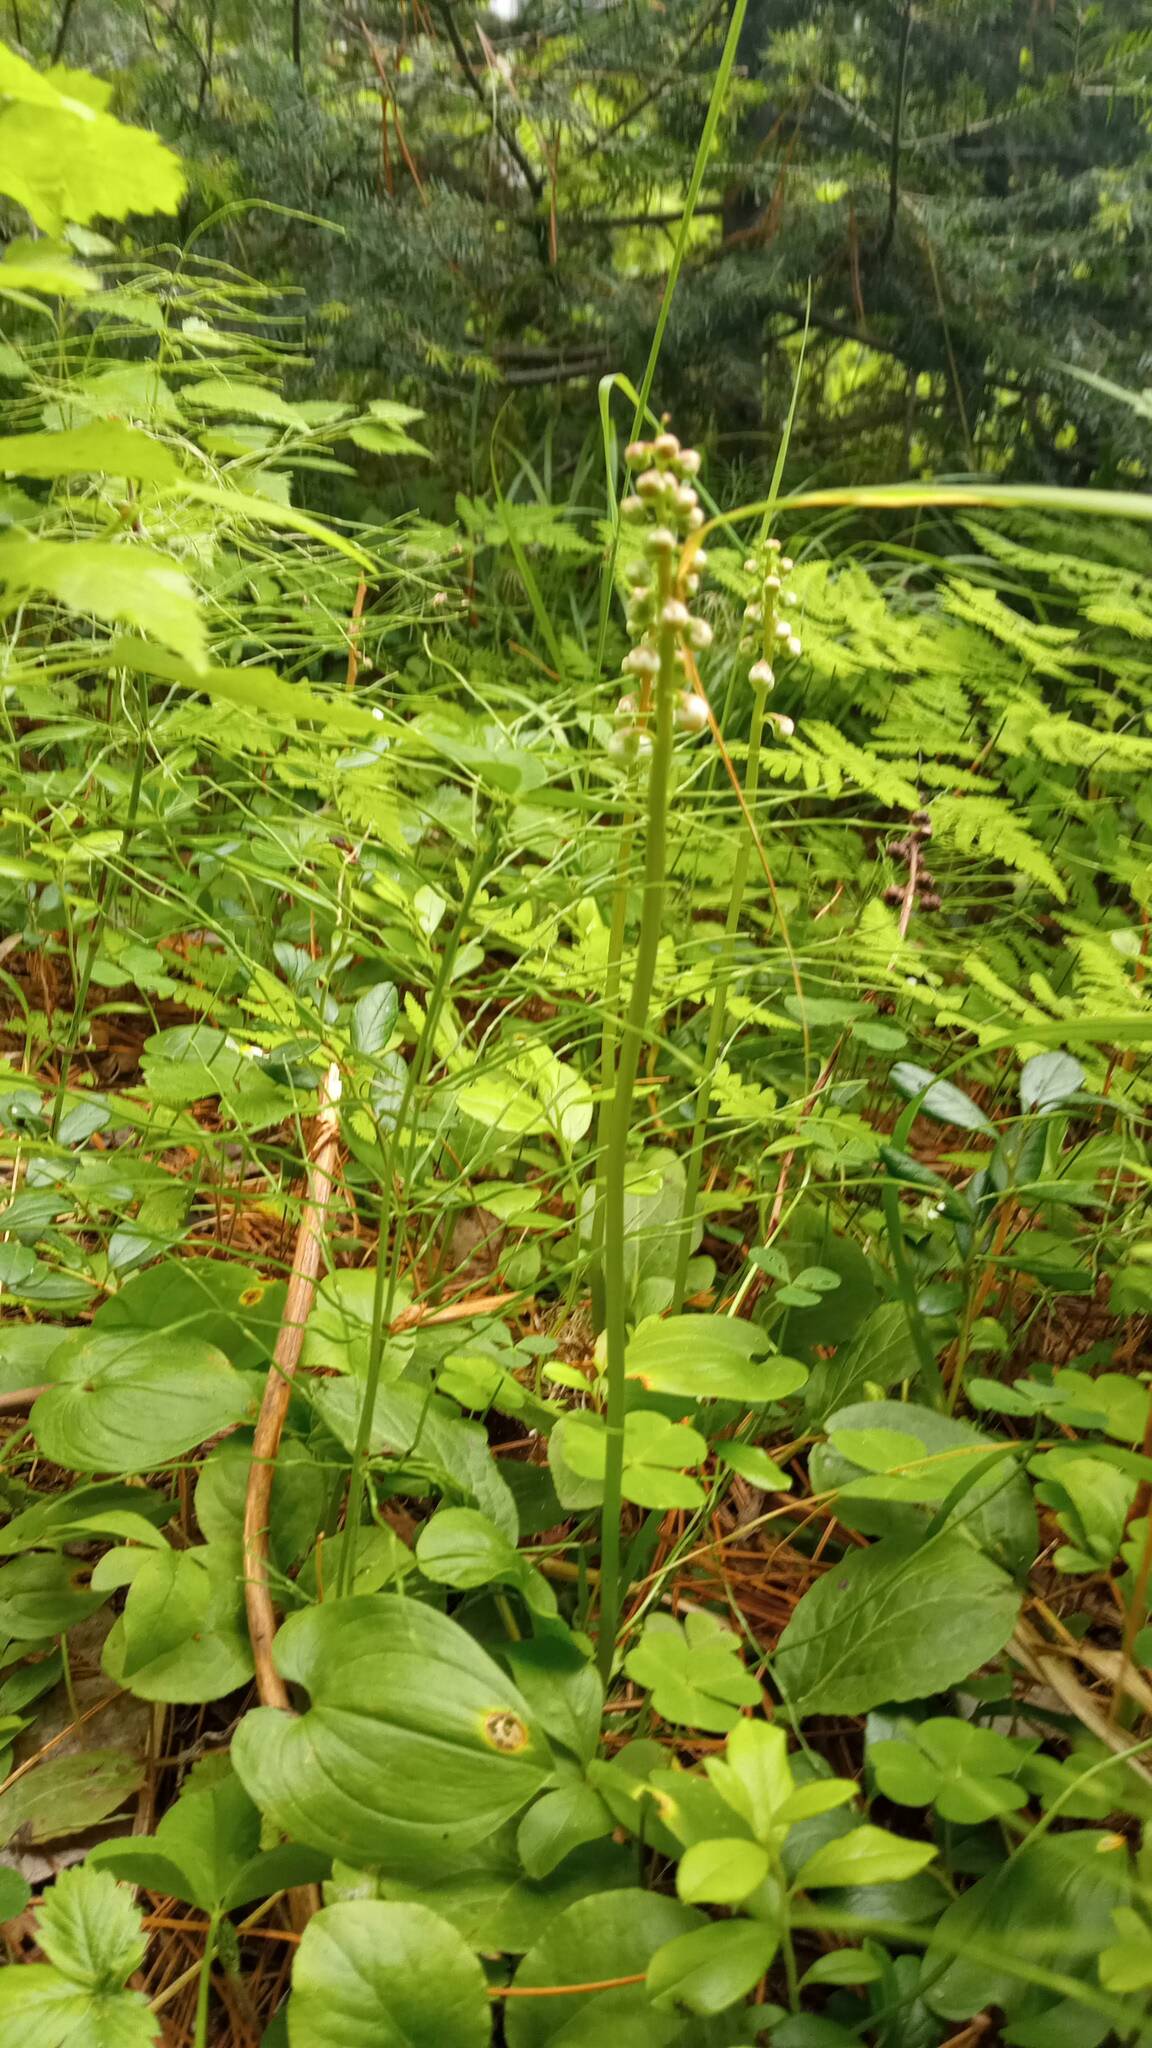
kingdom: Plantae
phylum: Tracheophyta
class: Magnoliopsida
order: Ericales
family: Ericaceae
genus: Pyrola
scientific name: Pyrola minor
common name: Common wintergreen
